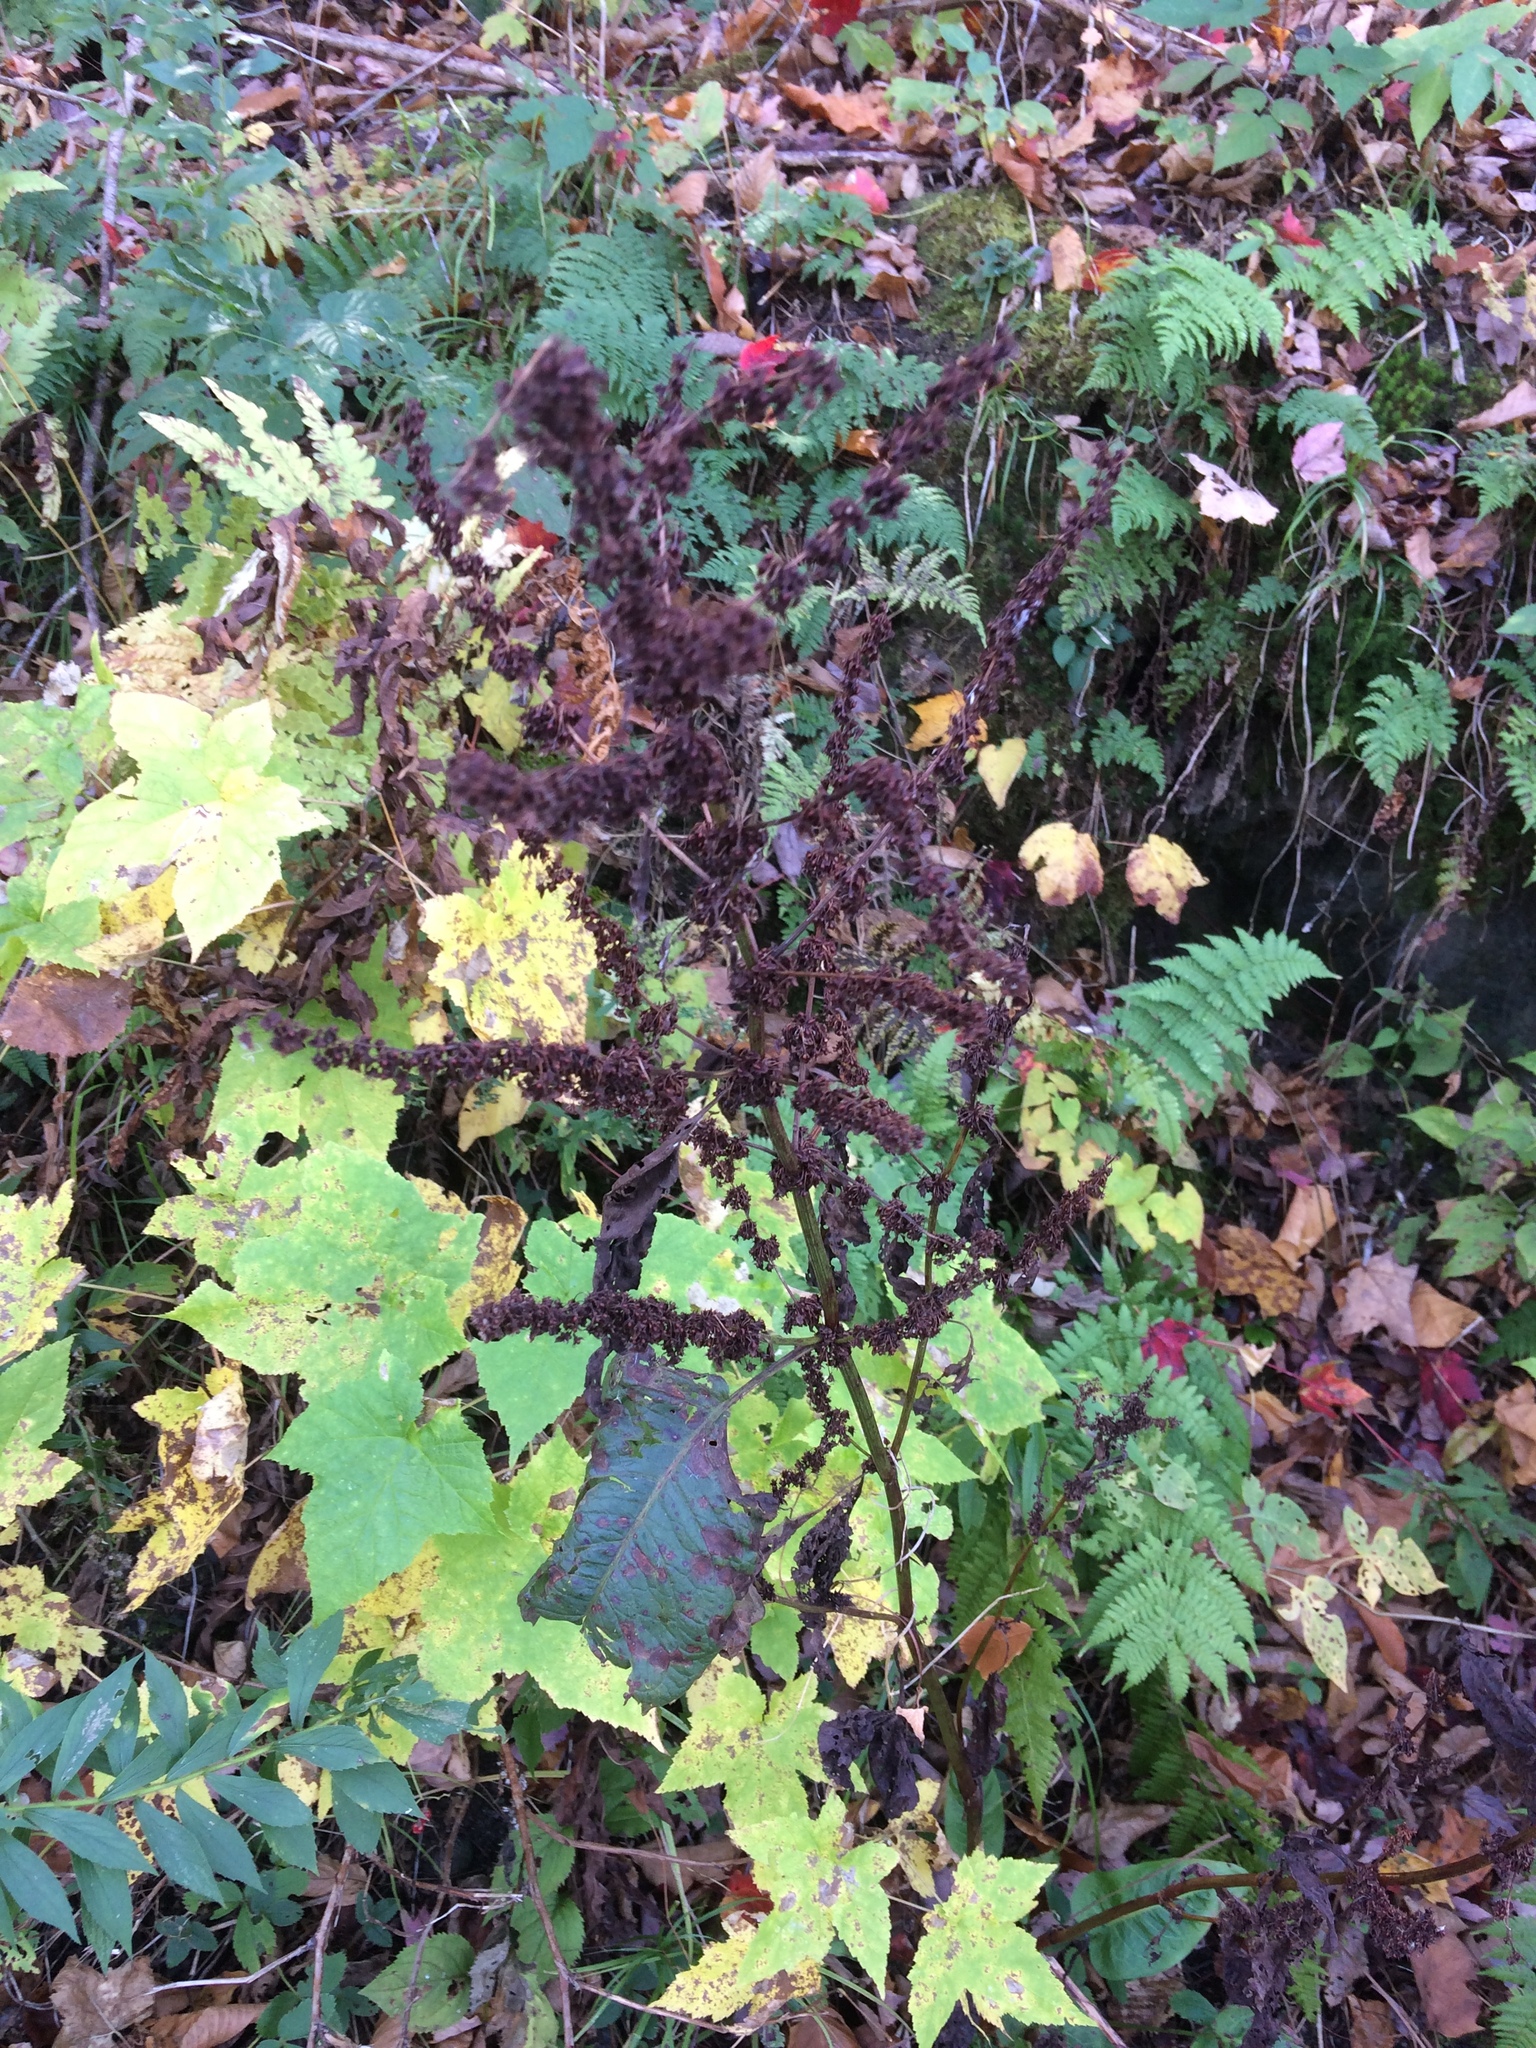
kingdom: Plantae
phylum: Tracheophyta
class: Magnoliopsida
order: Caryophyllales
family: Polygonaceae
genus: Rumex
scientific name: Rumex obtusifolius
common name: Bitter dock
